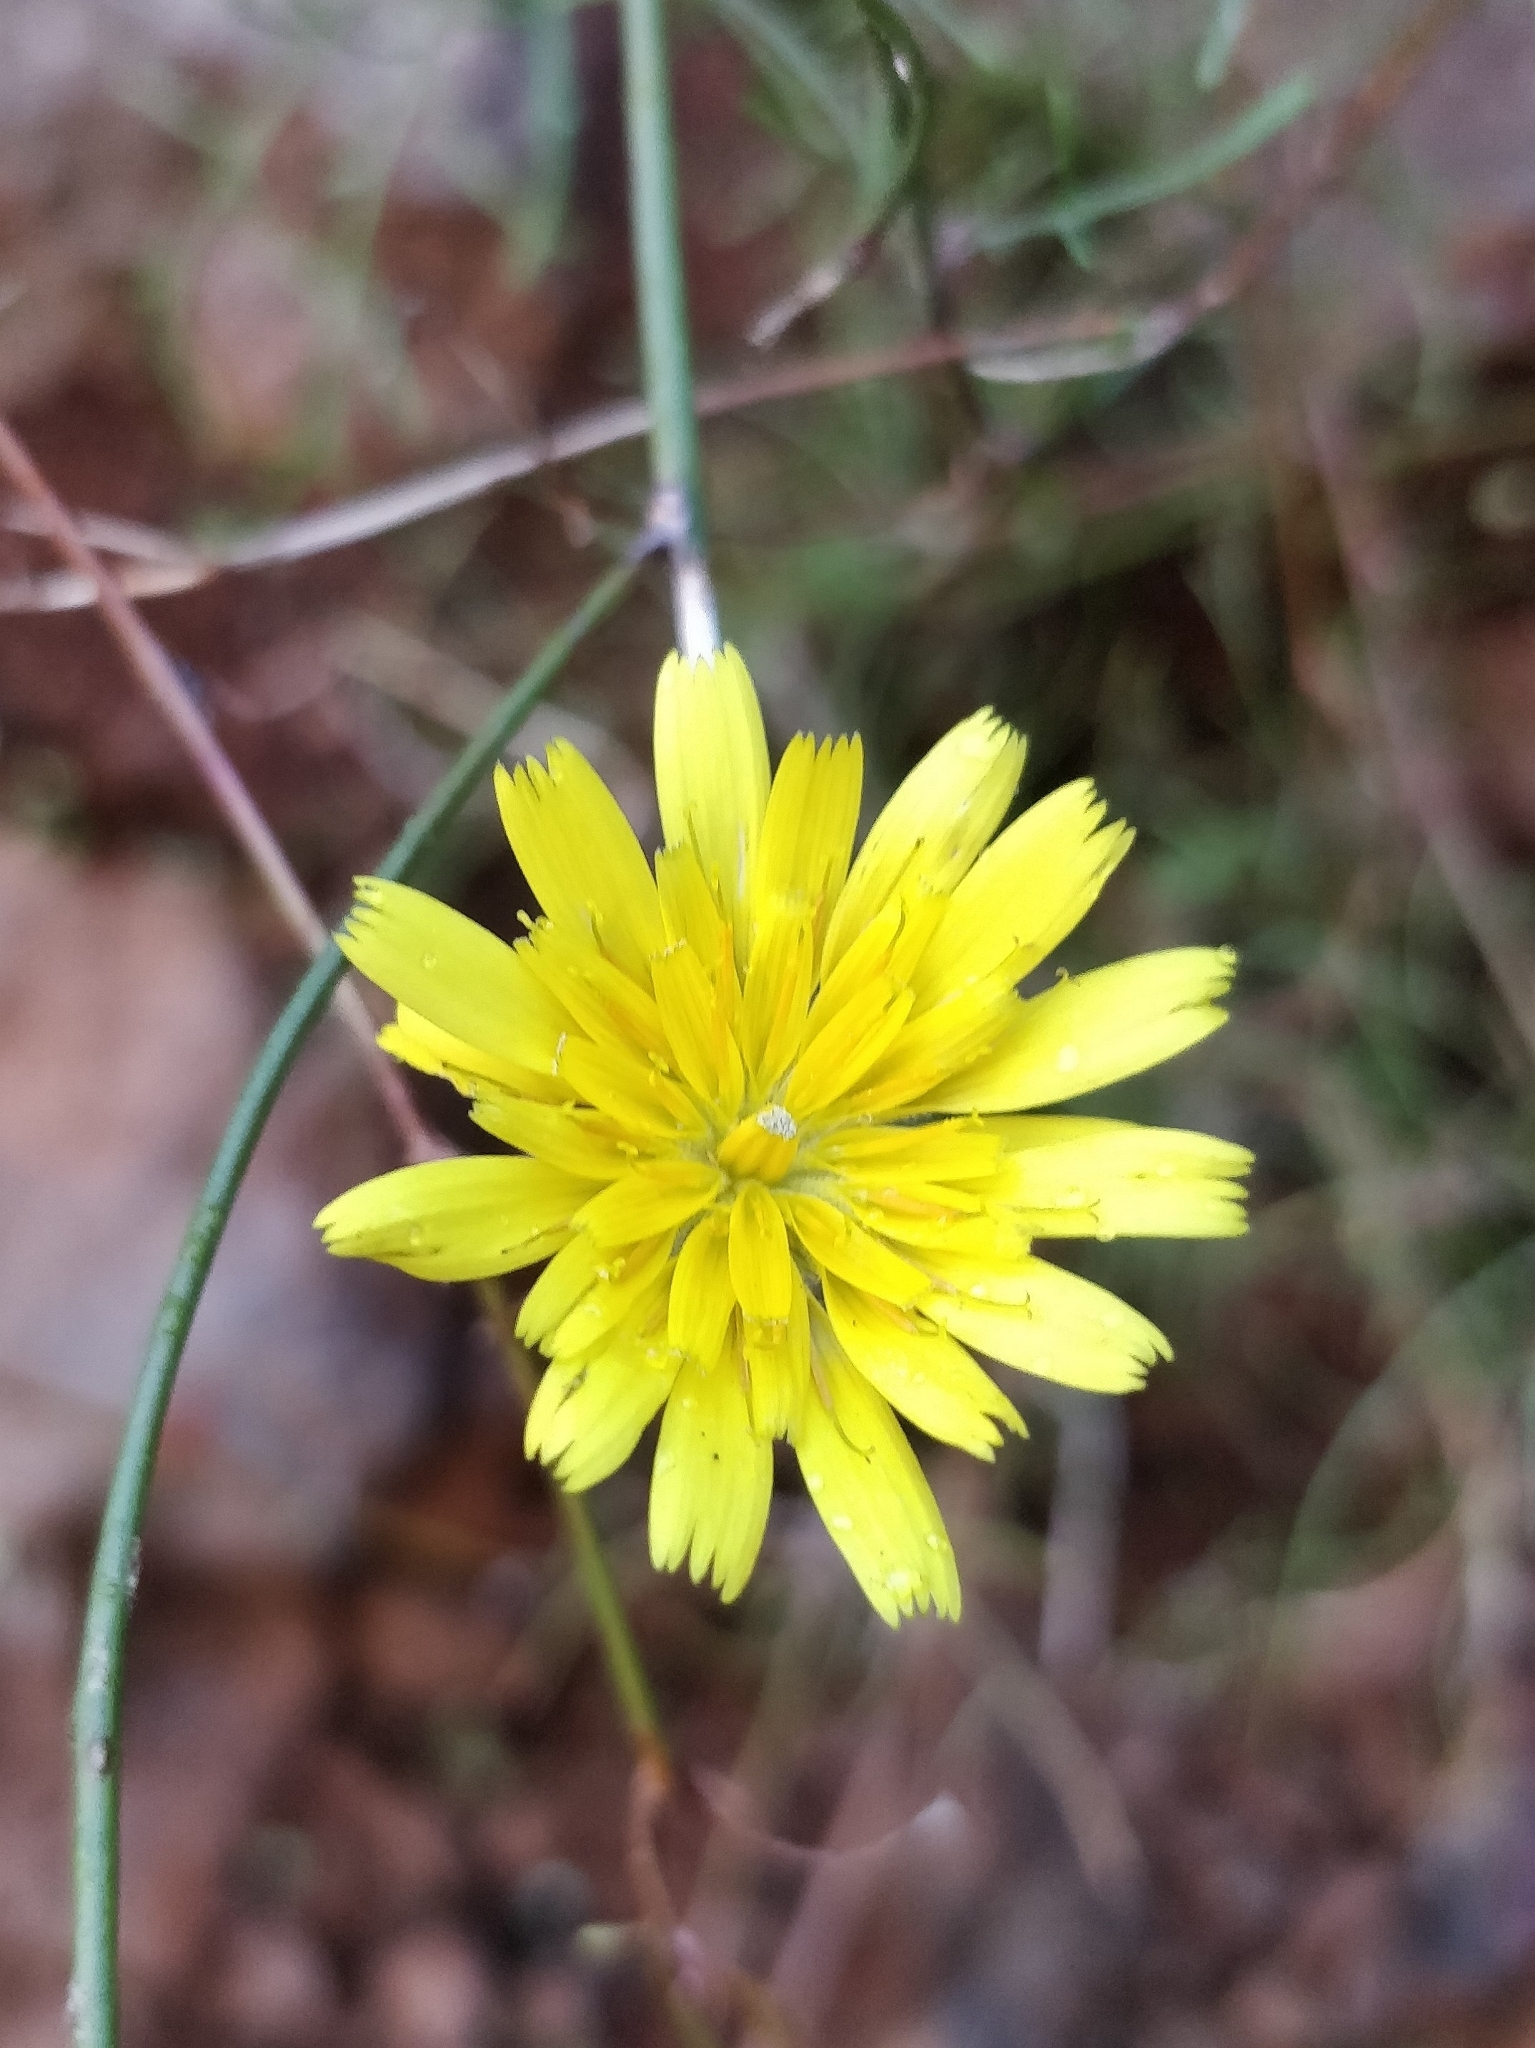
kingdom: Plantae
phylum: Tracheophyta
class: Magnoliopsida
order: Asterales
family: Asteraceae
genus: Tolpis
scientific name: Tolpis succulenta
